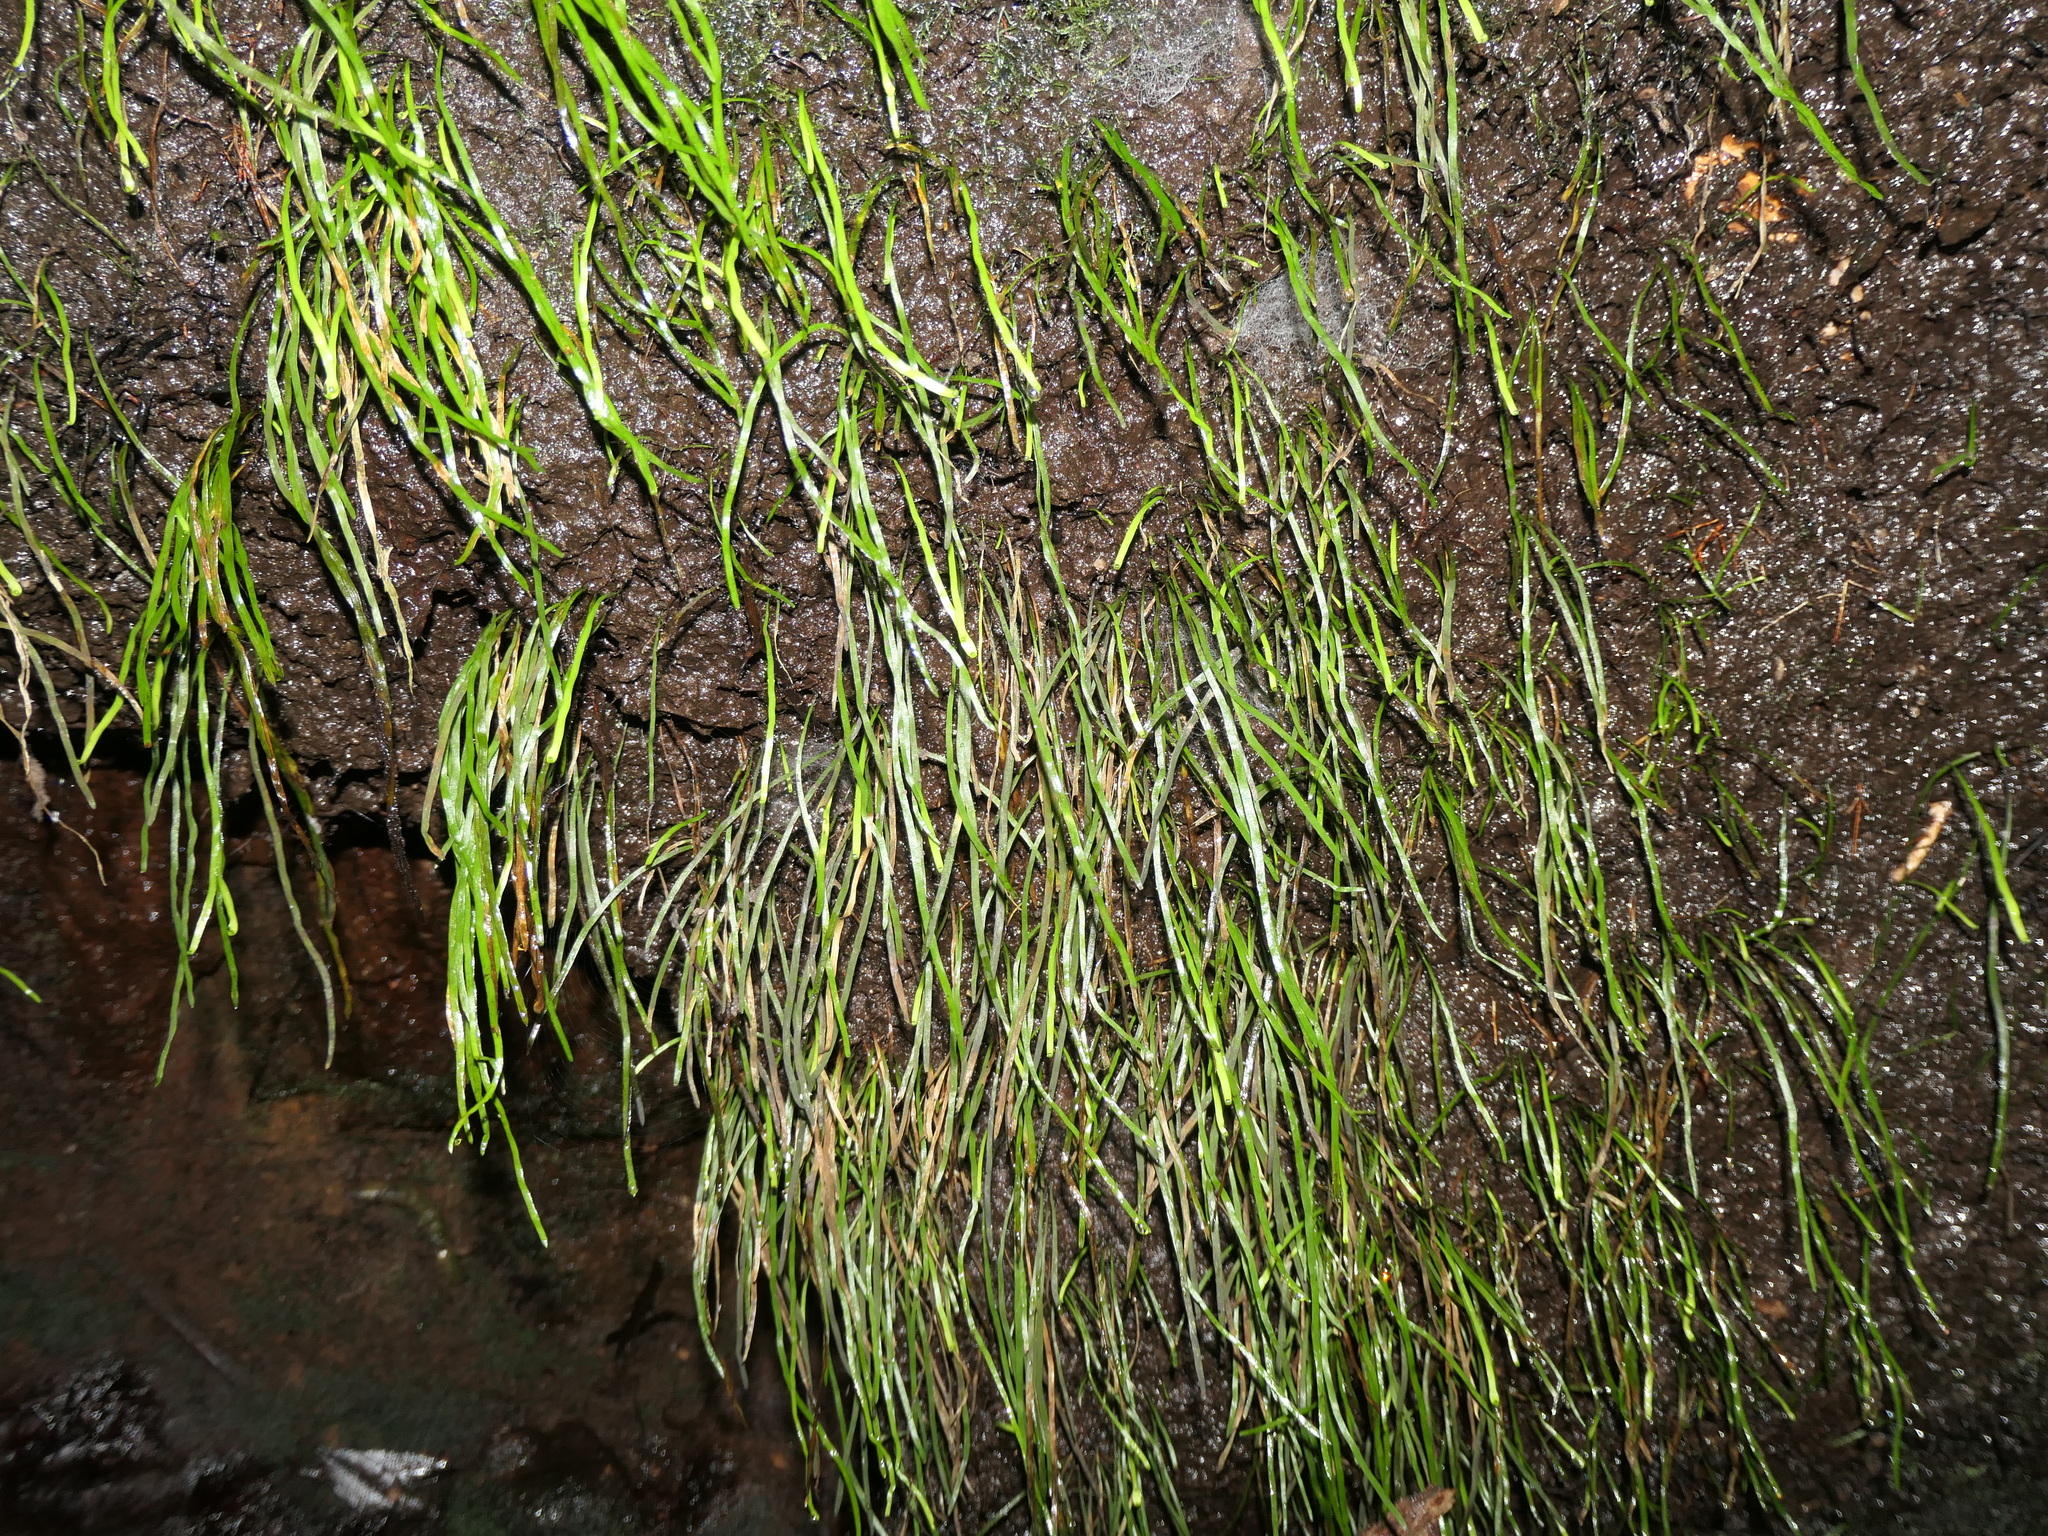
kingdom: Plantae
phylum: Tracheophyta
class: Polypodiopsida
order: Schizaeales
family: Schizaeaceae
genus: Microschizaea
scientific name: Microschizaea rupestris
